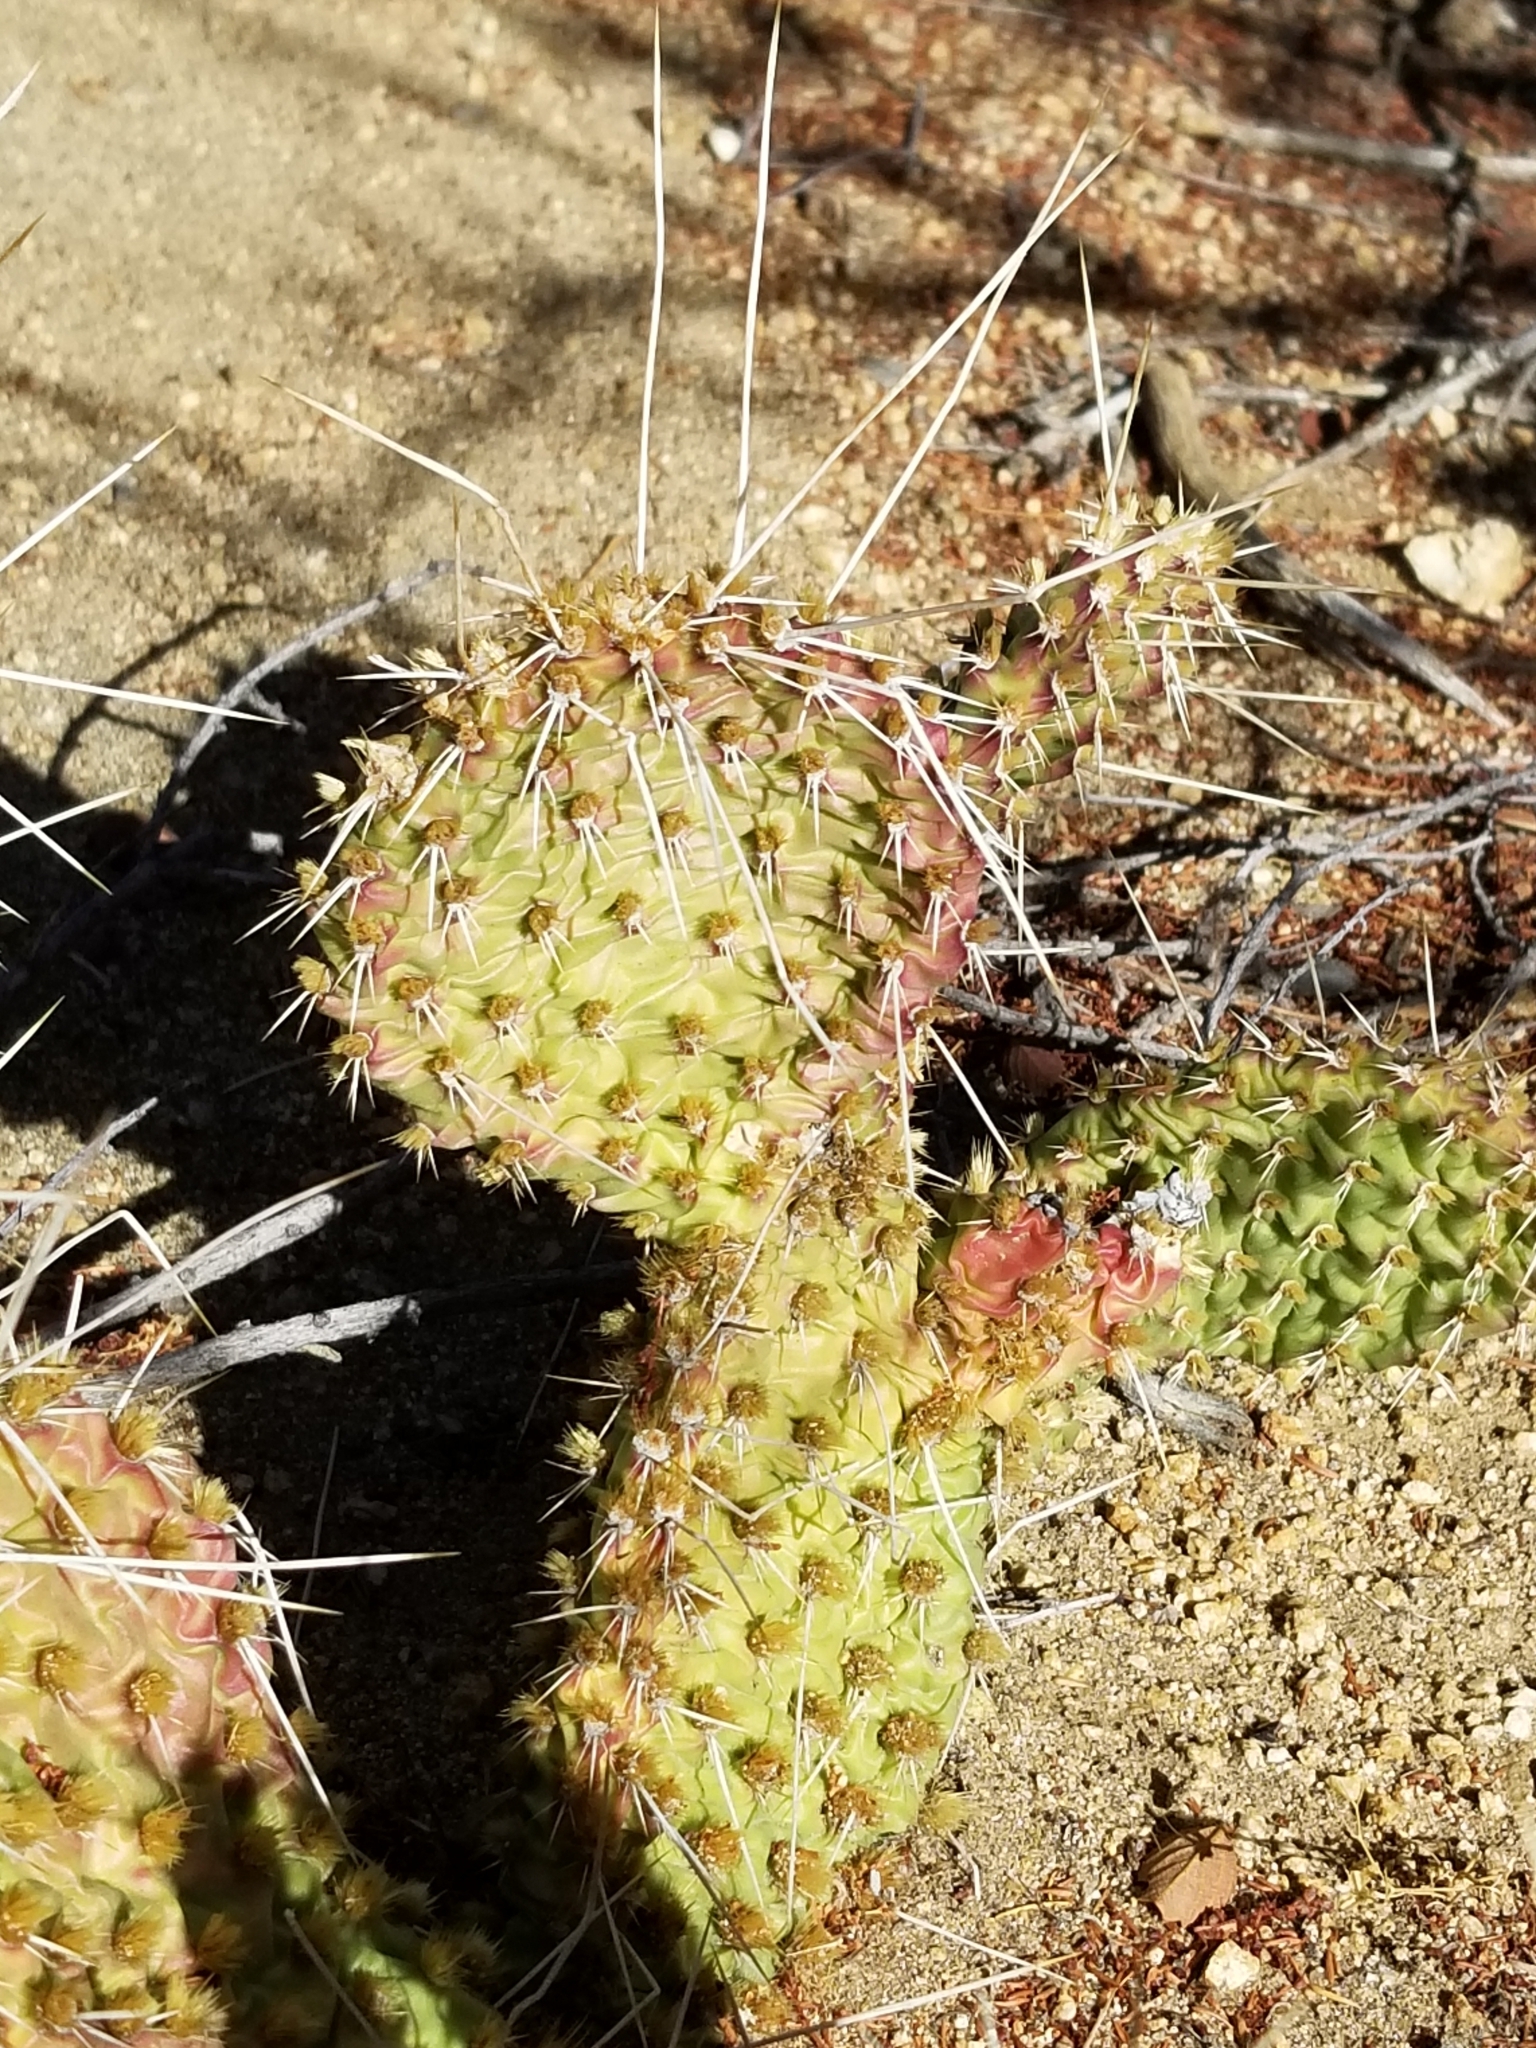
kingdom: Plantae
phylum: Tracheophyta
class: Magnoliopsida
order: Caryophyllales
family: Cactaceae
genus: Opuntia
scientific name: Opuntia polyacantha
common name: Plains prickly-pear
